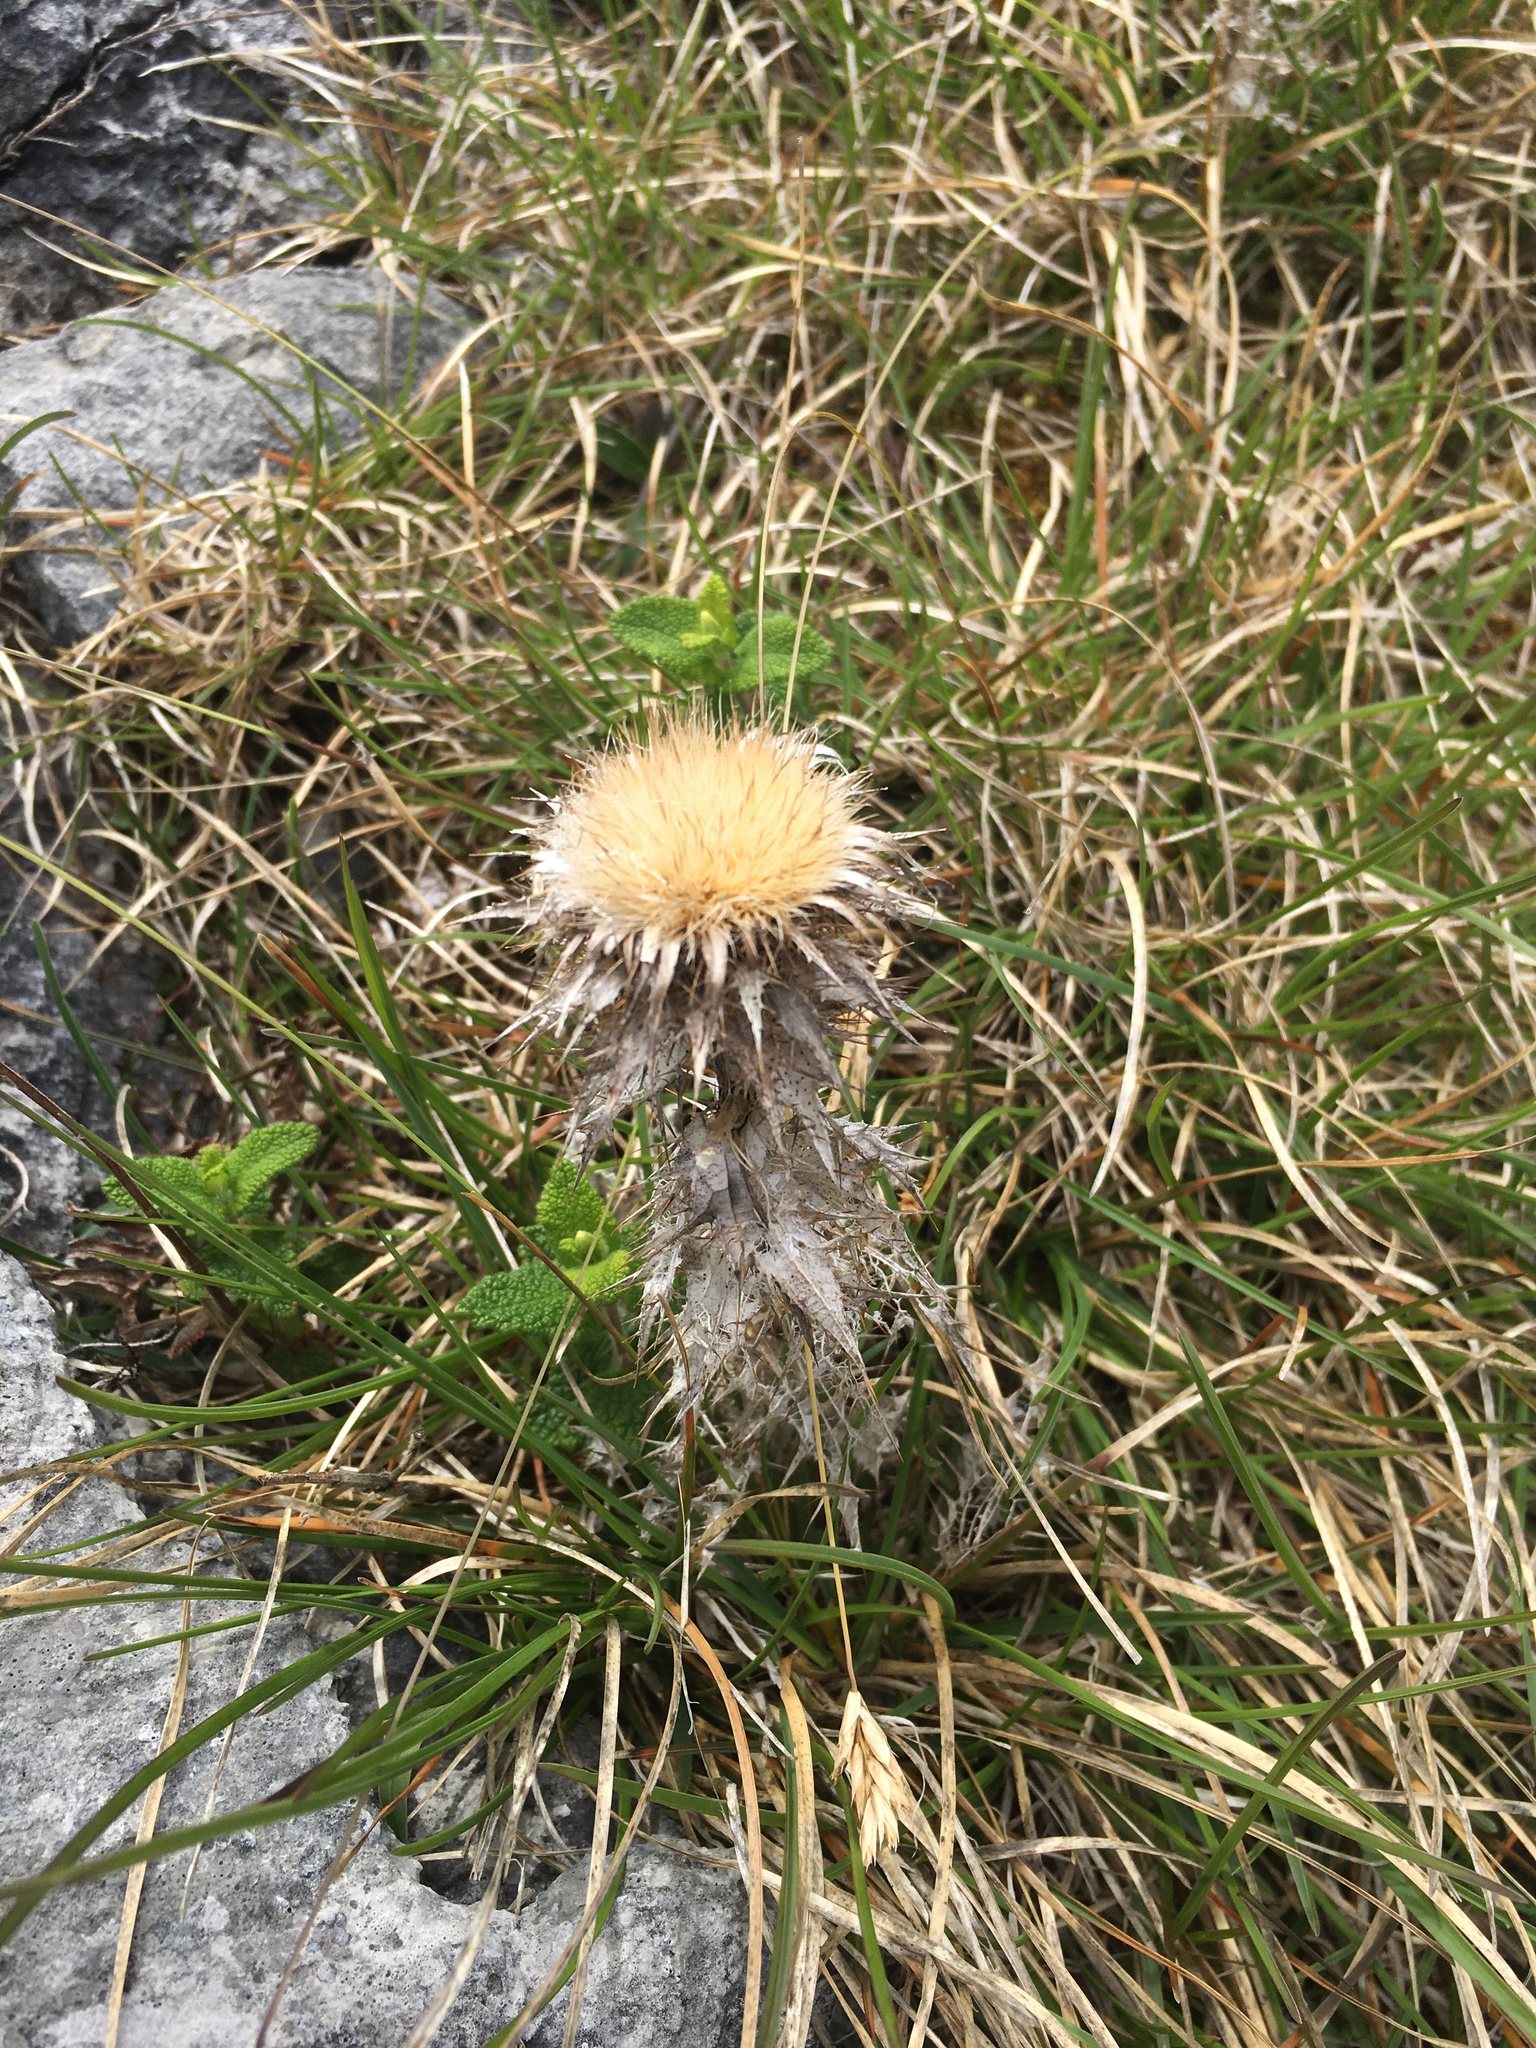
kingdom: Plantae
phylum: Tracheophyta
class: Magnoliopsida
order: Asterales
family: Asteraceae
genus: Carlina
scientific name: Carlina vulgaris
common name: Carline thistle
